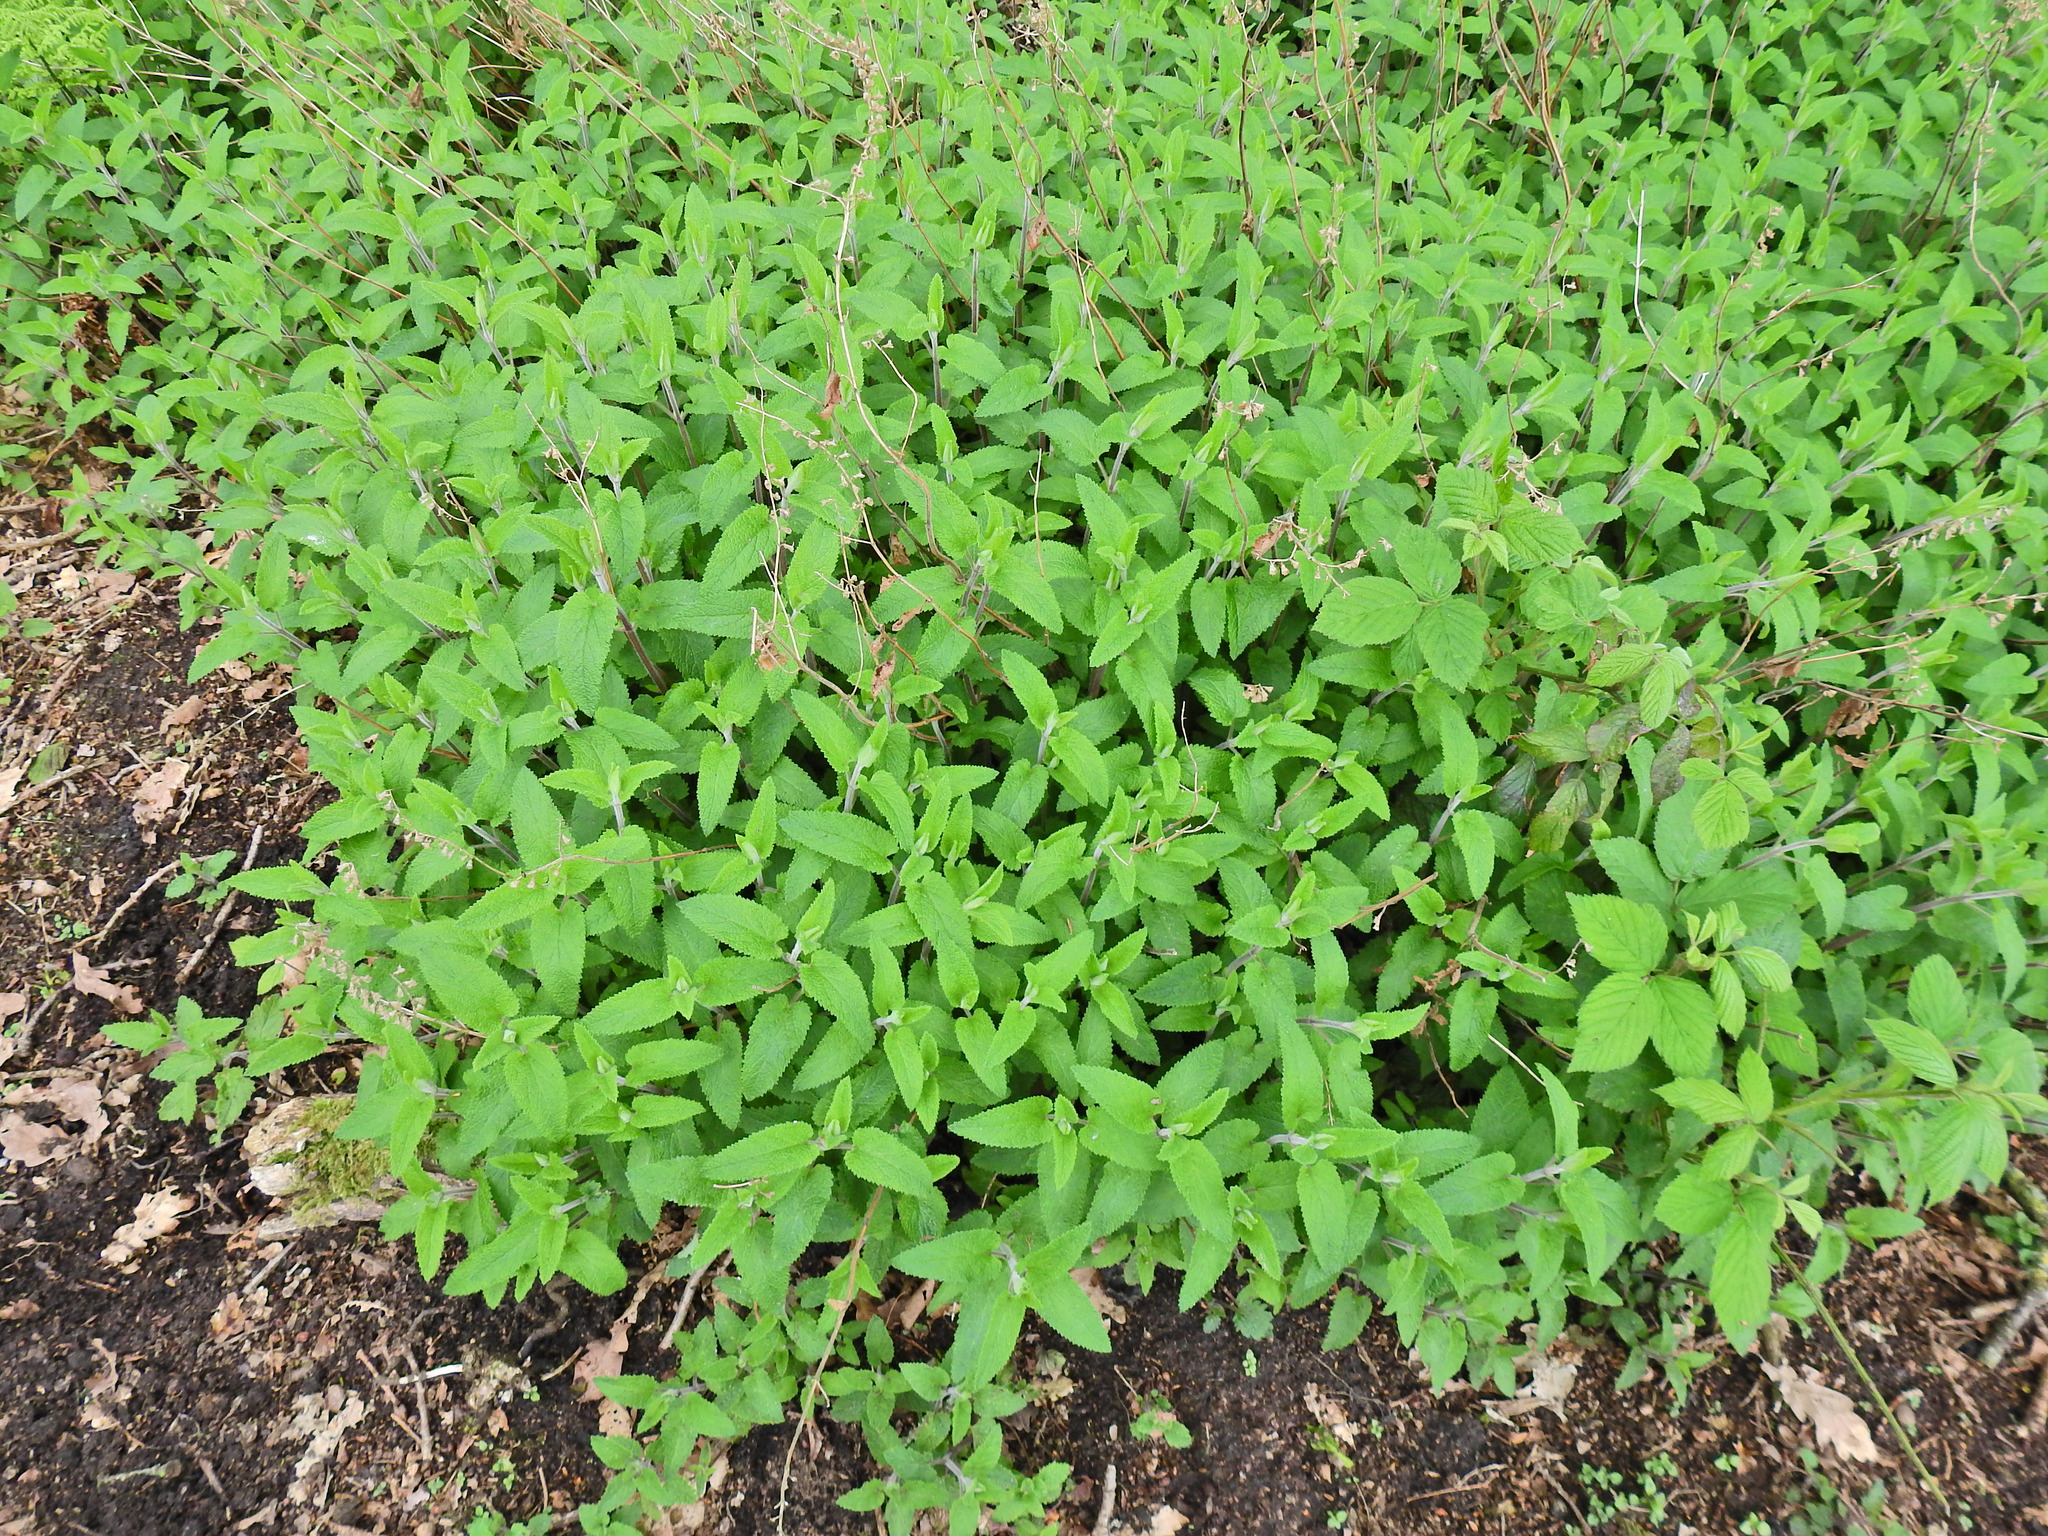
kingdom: Plantae
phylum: Tracheophyta
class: Magnoliopsida
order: Lamiales
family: Lamiaceae
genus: Teucrium
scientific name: Teucrium scorodonia
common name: Woodland germander
